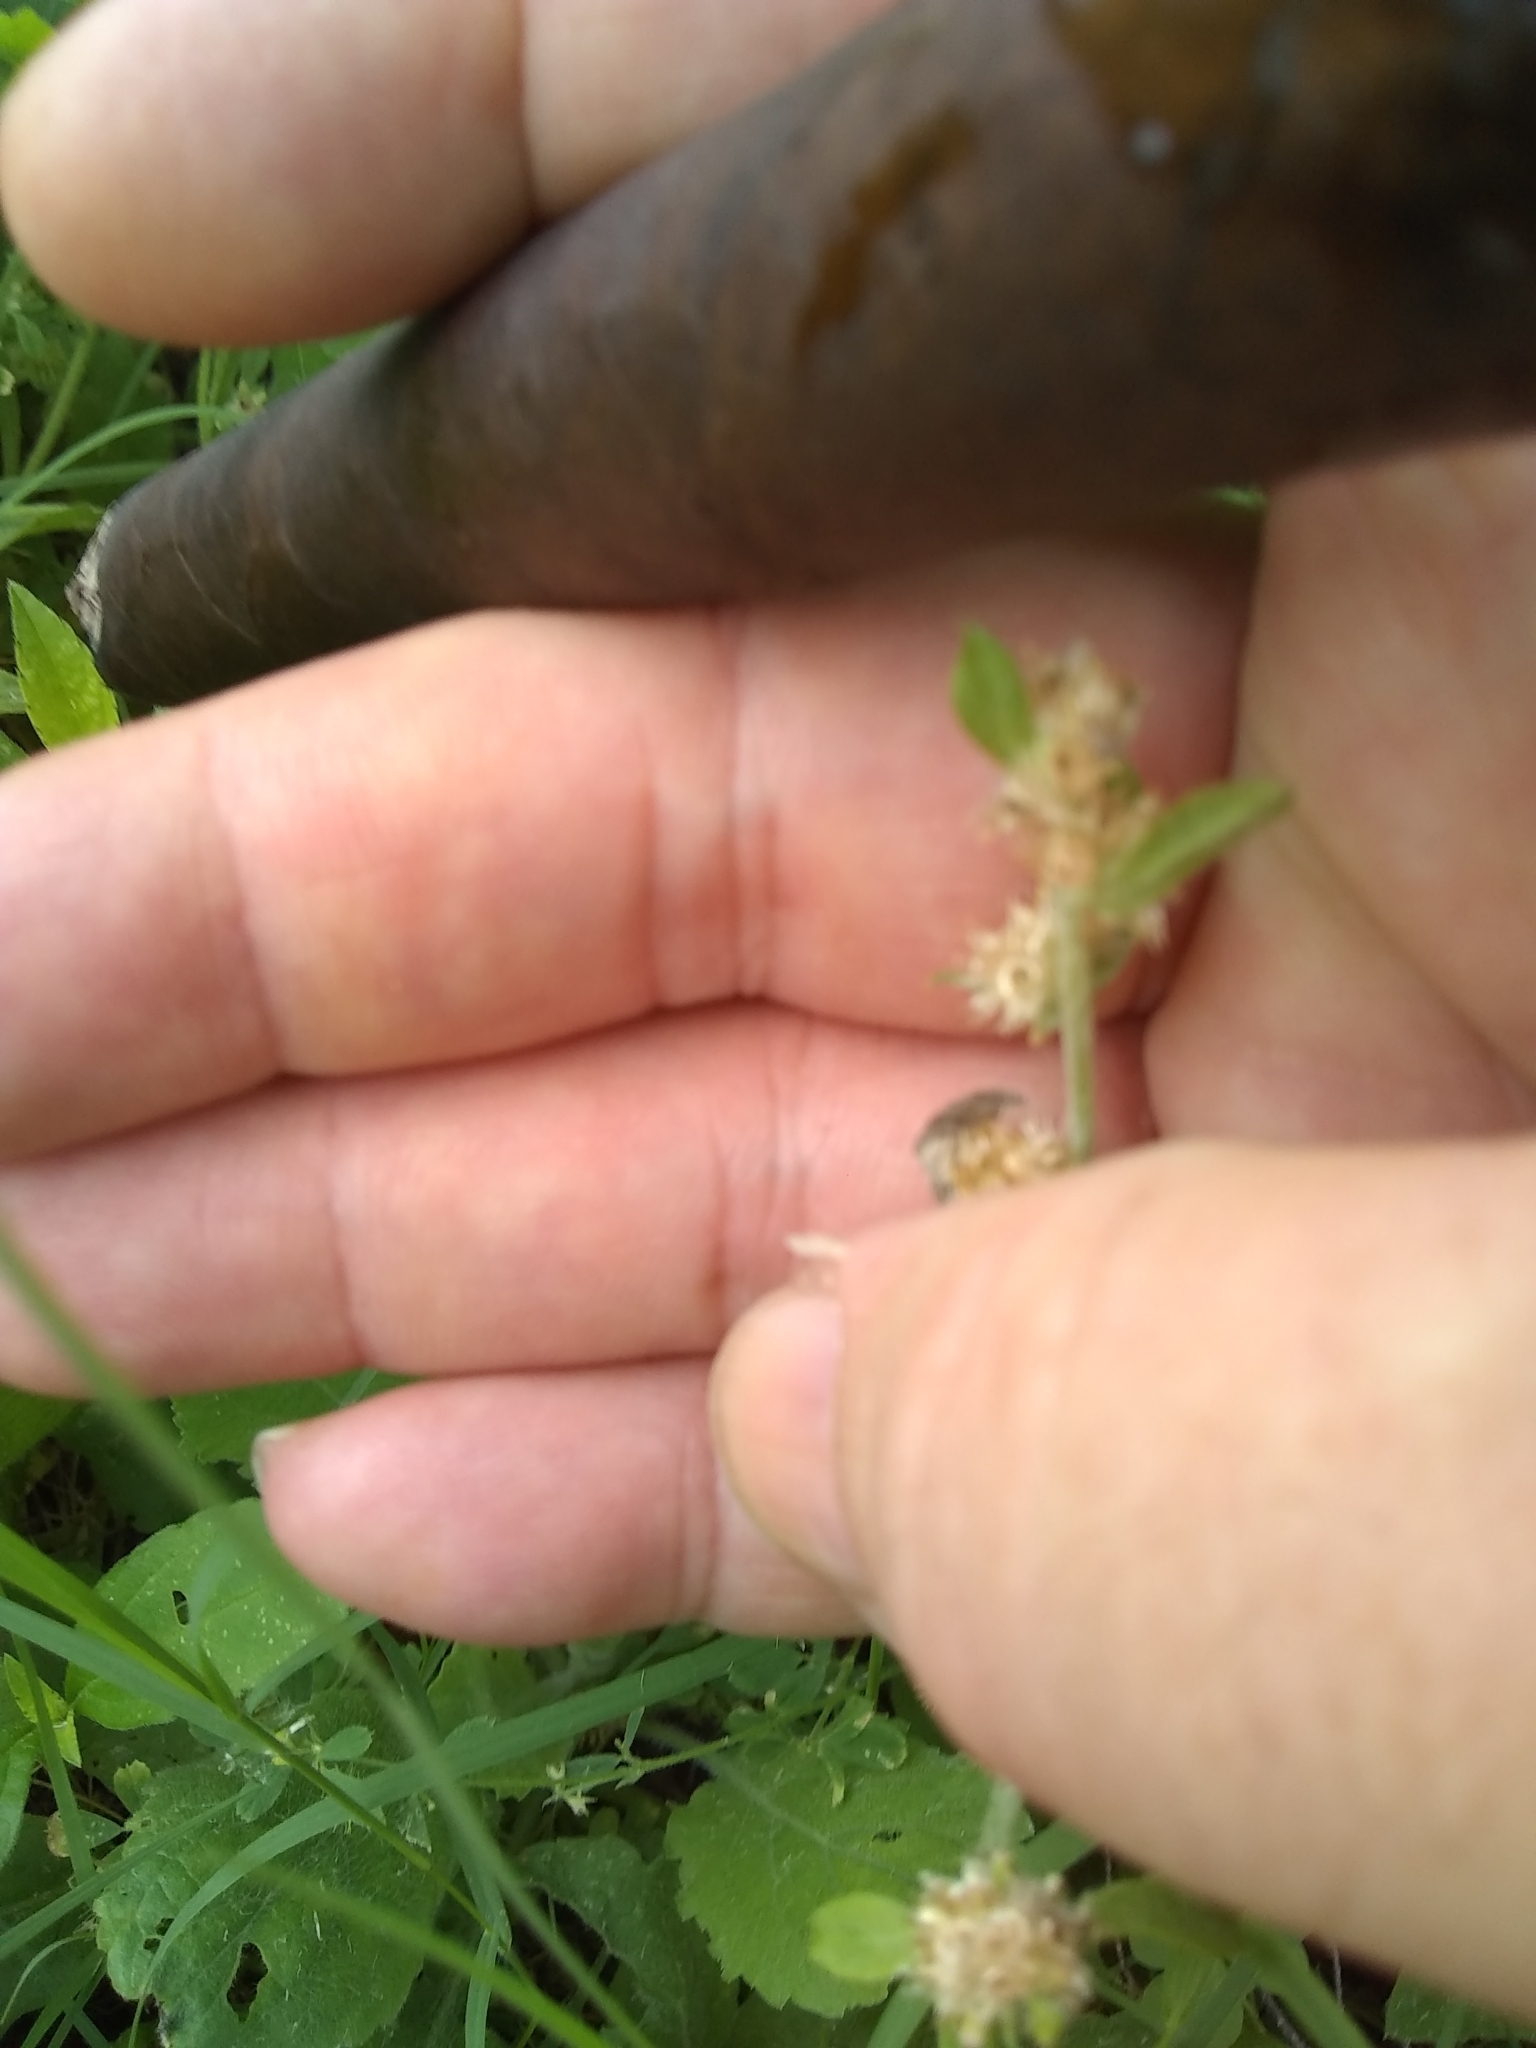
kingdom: Plantae
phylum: Tracheophyta
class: Magnoliopsida
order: Fabales
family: Fabaceae
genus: Medicago
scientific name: Medicago minima
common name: Little bur-clover
